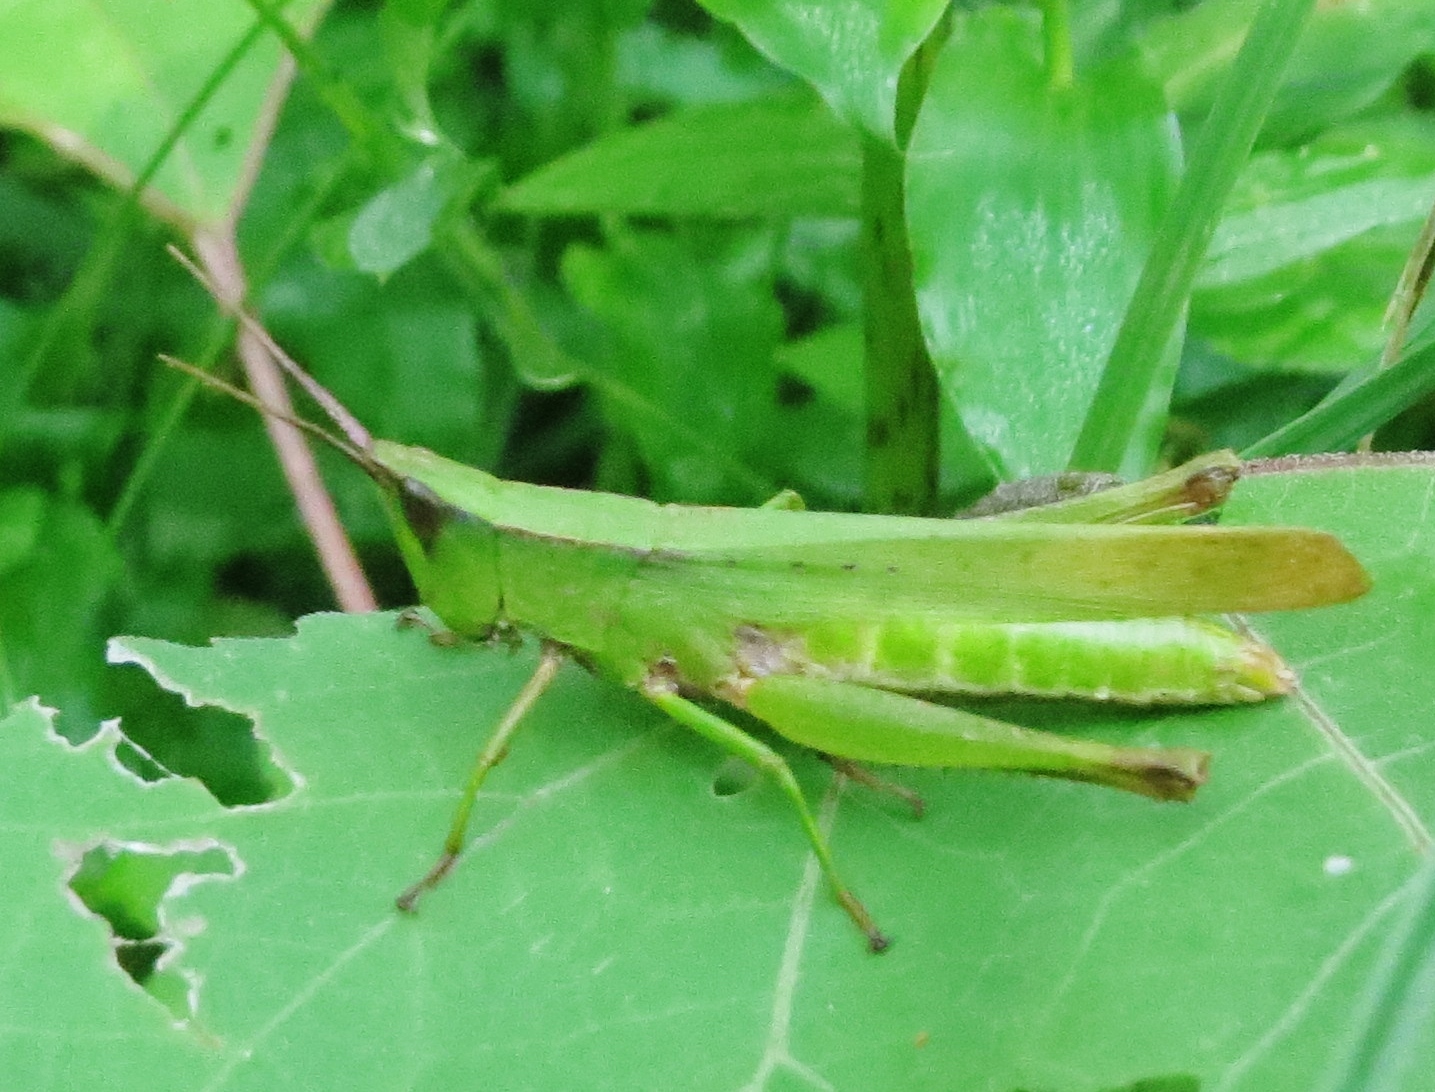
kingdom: Animalia
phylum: Arthropoda
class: Insecta
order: Orthoptera
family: Acrididae
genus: Metaleptea
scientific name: Metaleptea brevicornis
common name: Clipped-wing grasshopper
